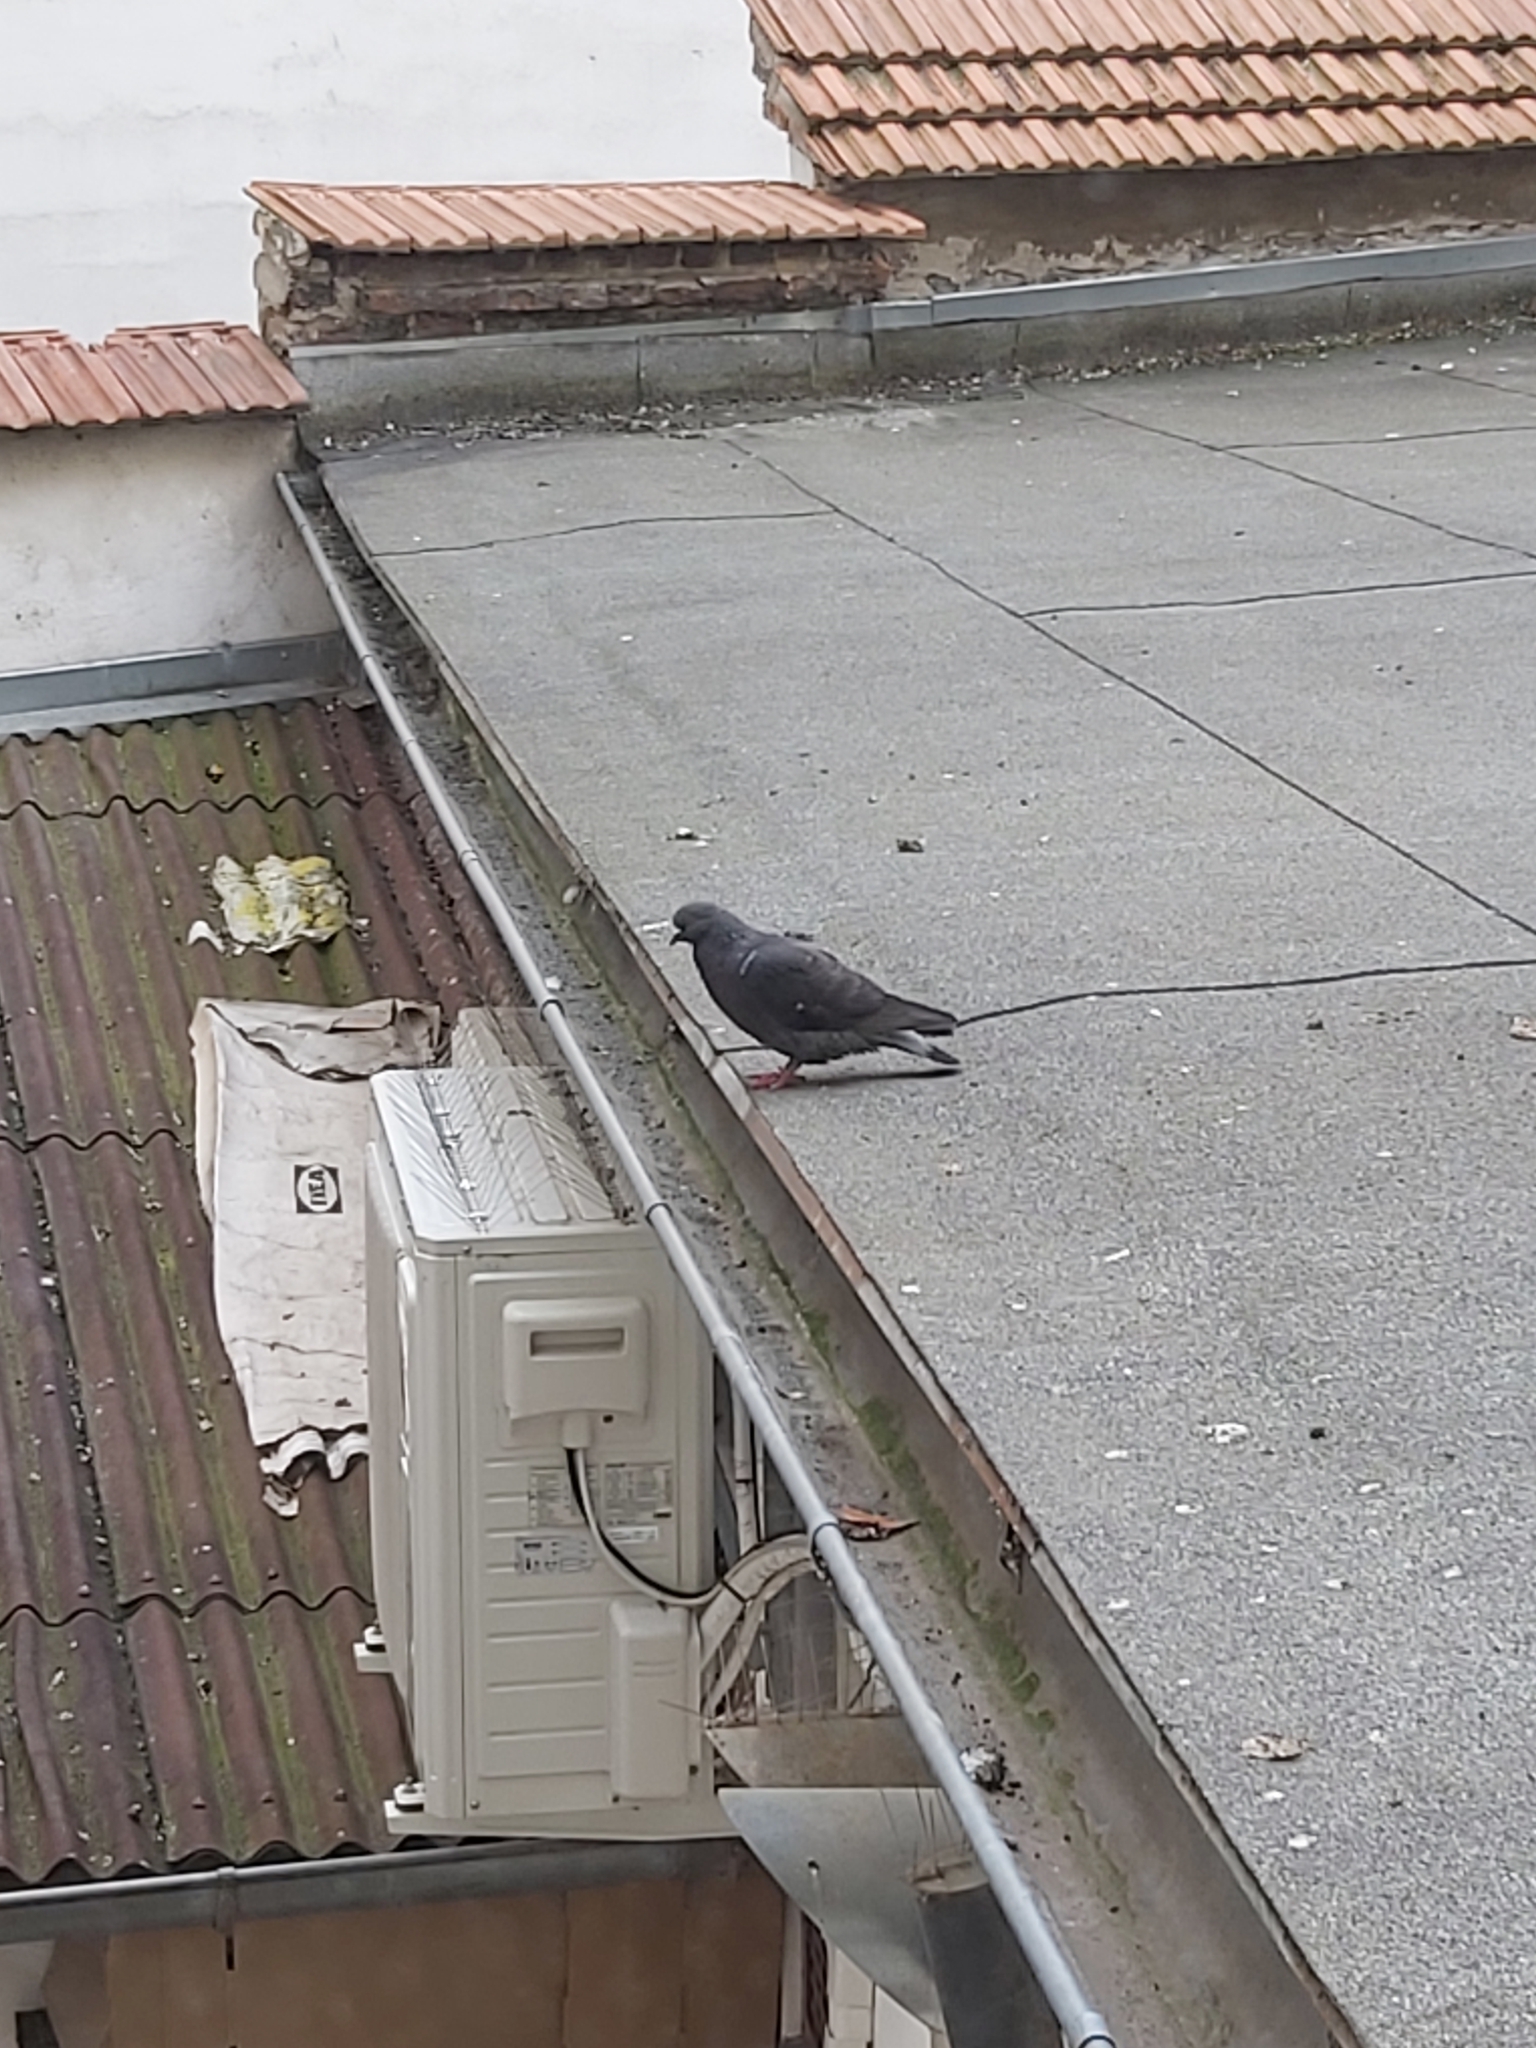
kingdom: Animalia
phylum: Chordata
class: Aves
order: Columbiformes
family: Columbidae
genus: Columba
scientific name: Columba livia
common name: Rock pigeon
